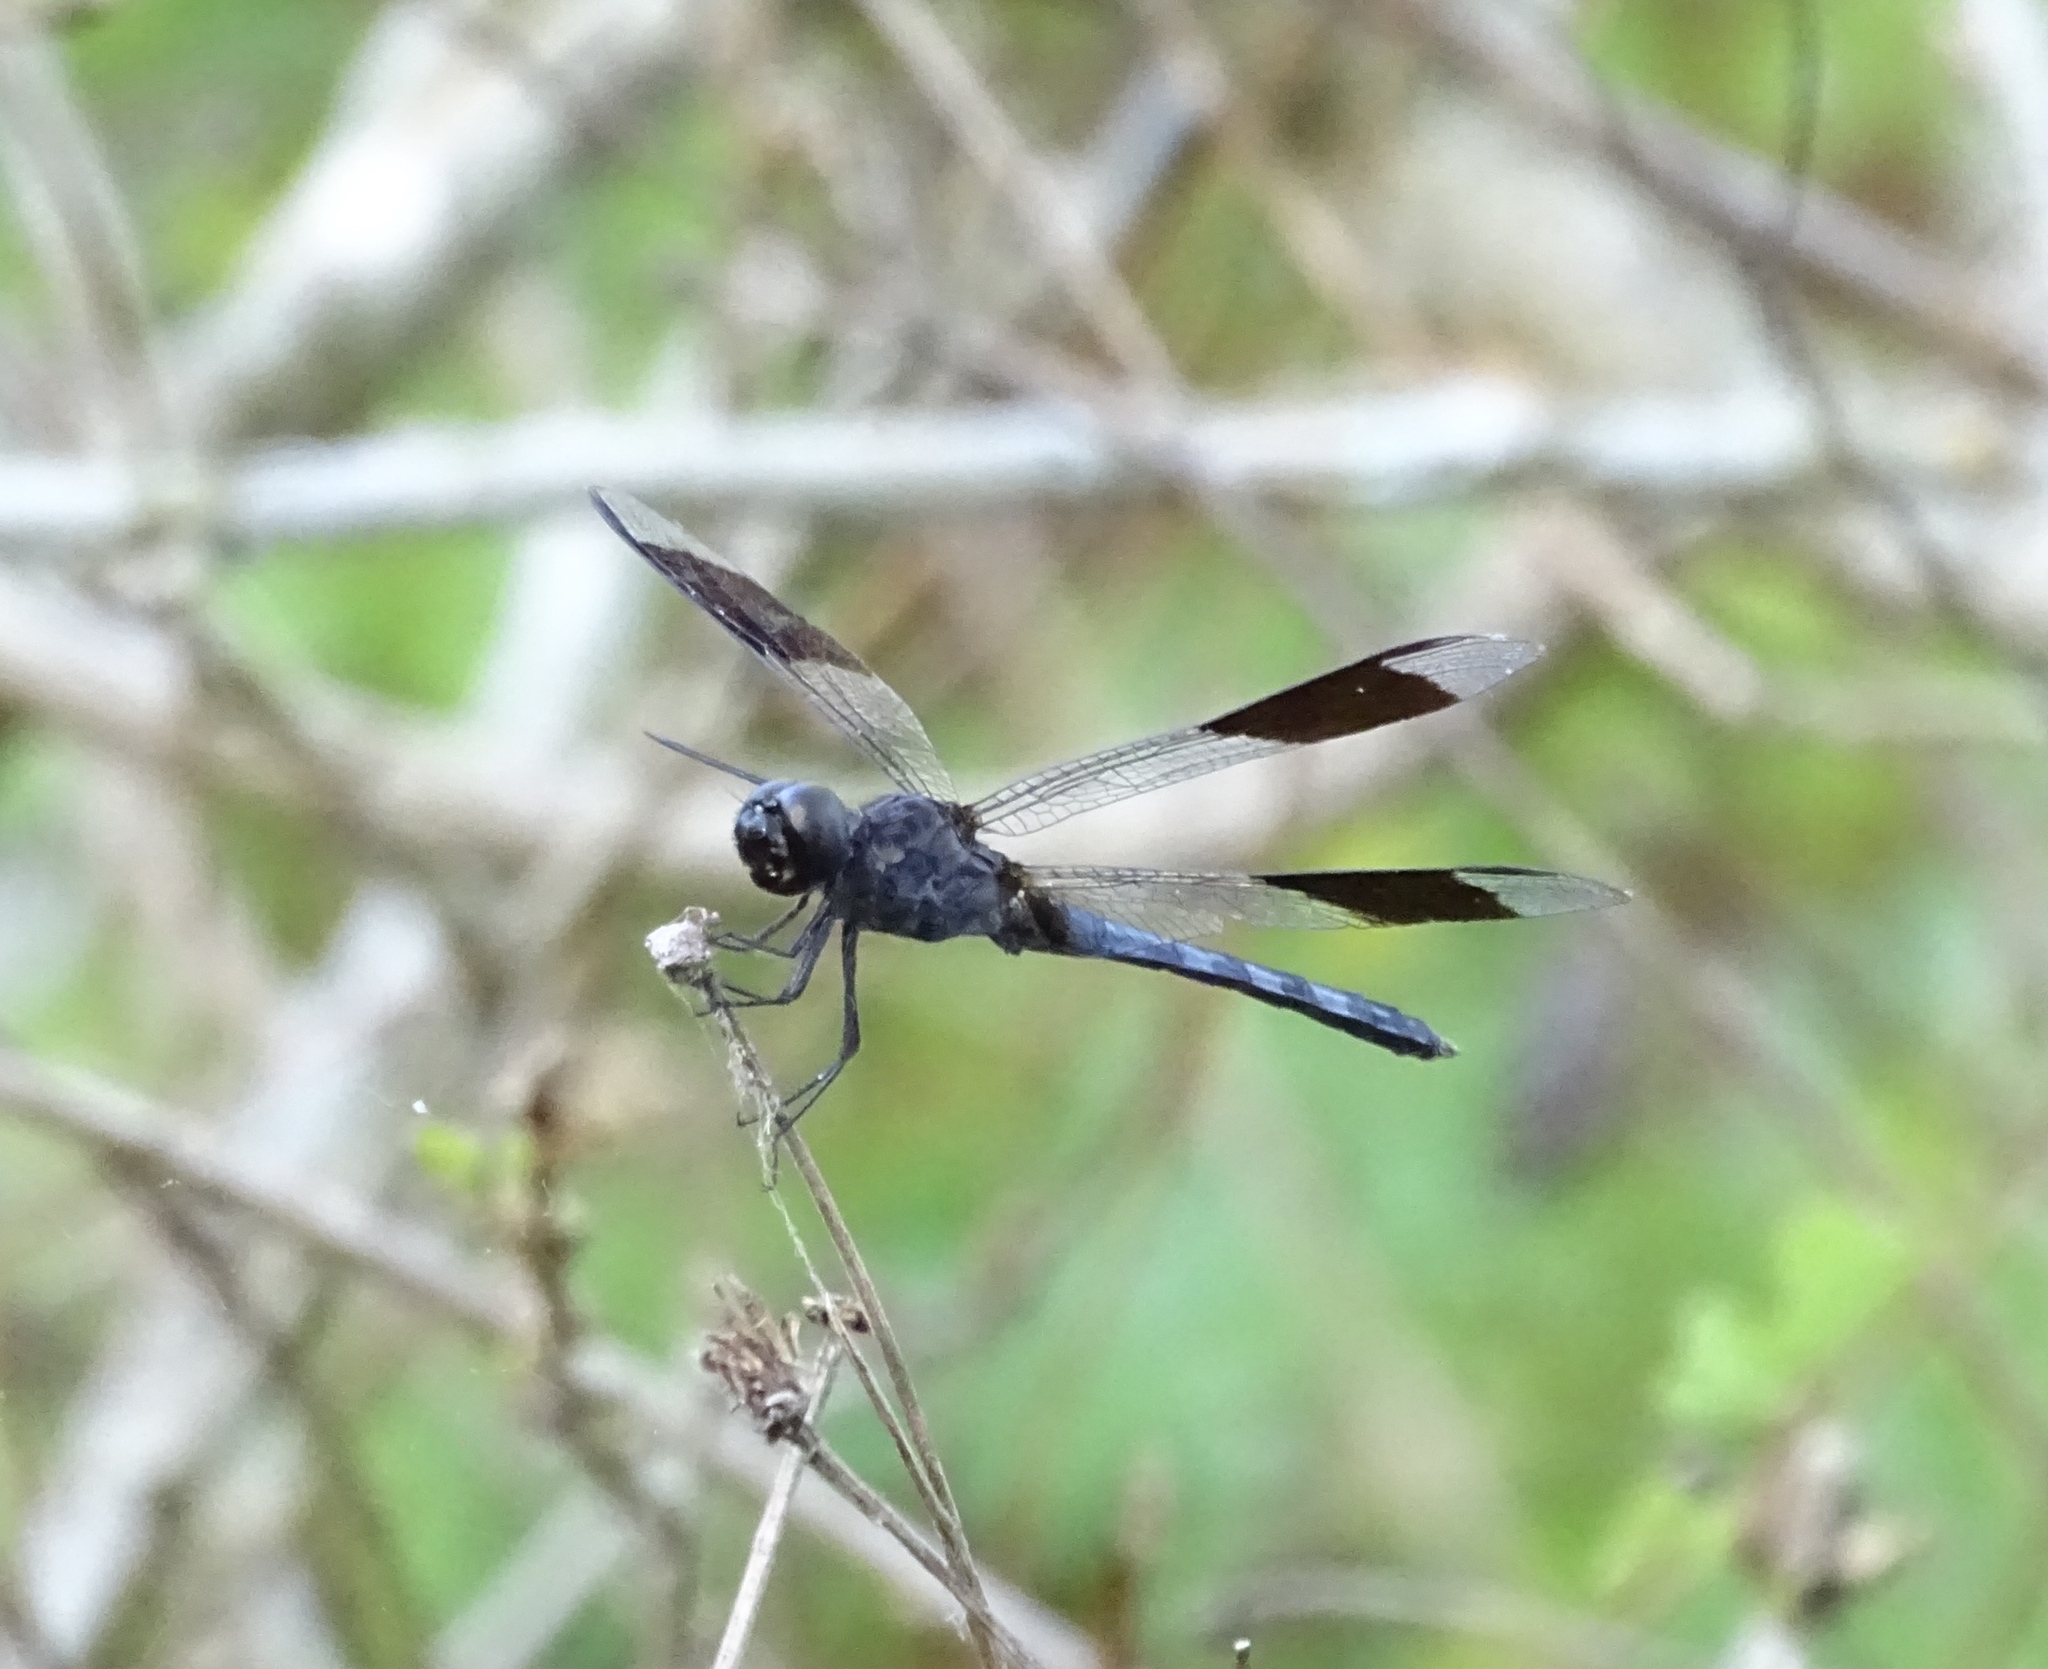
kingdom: Animalia
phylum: Arthropoda
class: Insecta
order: Odonata
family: Libellulidae
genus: Erythrodiplax
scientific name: Erythrodiplax umbrata
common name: Band-winged dragonlet
